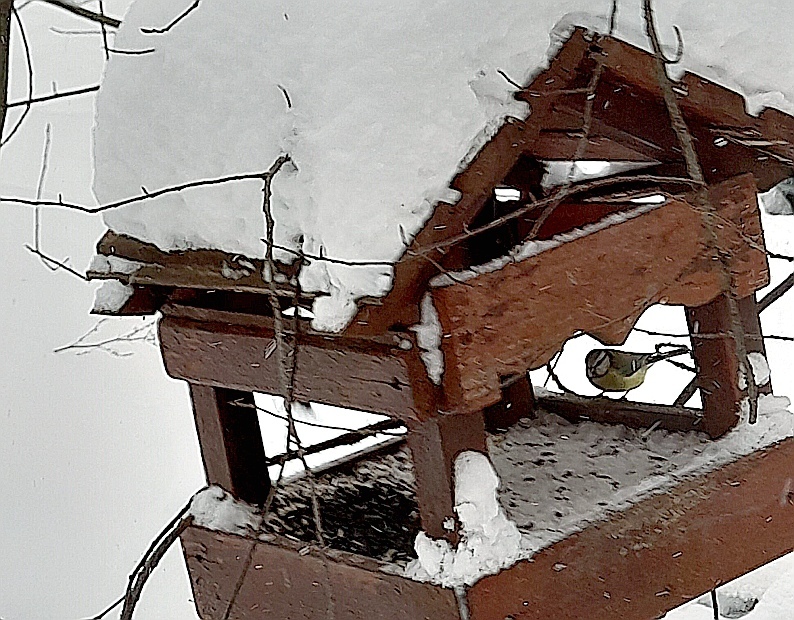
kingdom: Animalia
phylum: Chordata
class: Aves
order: Passeriformes
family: Paridae
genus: Cyanistes
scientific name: Cyanistes caeruleus
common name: Eurasian blue tit
